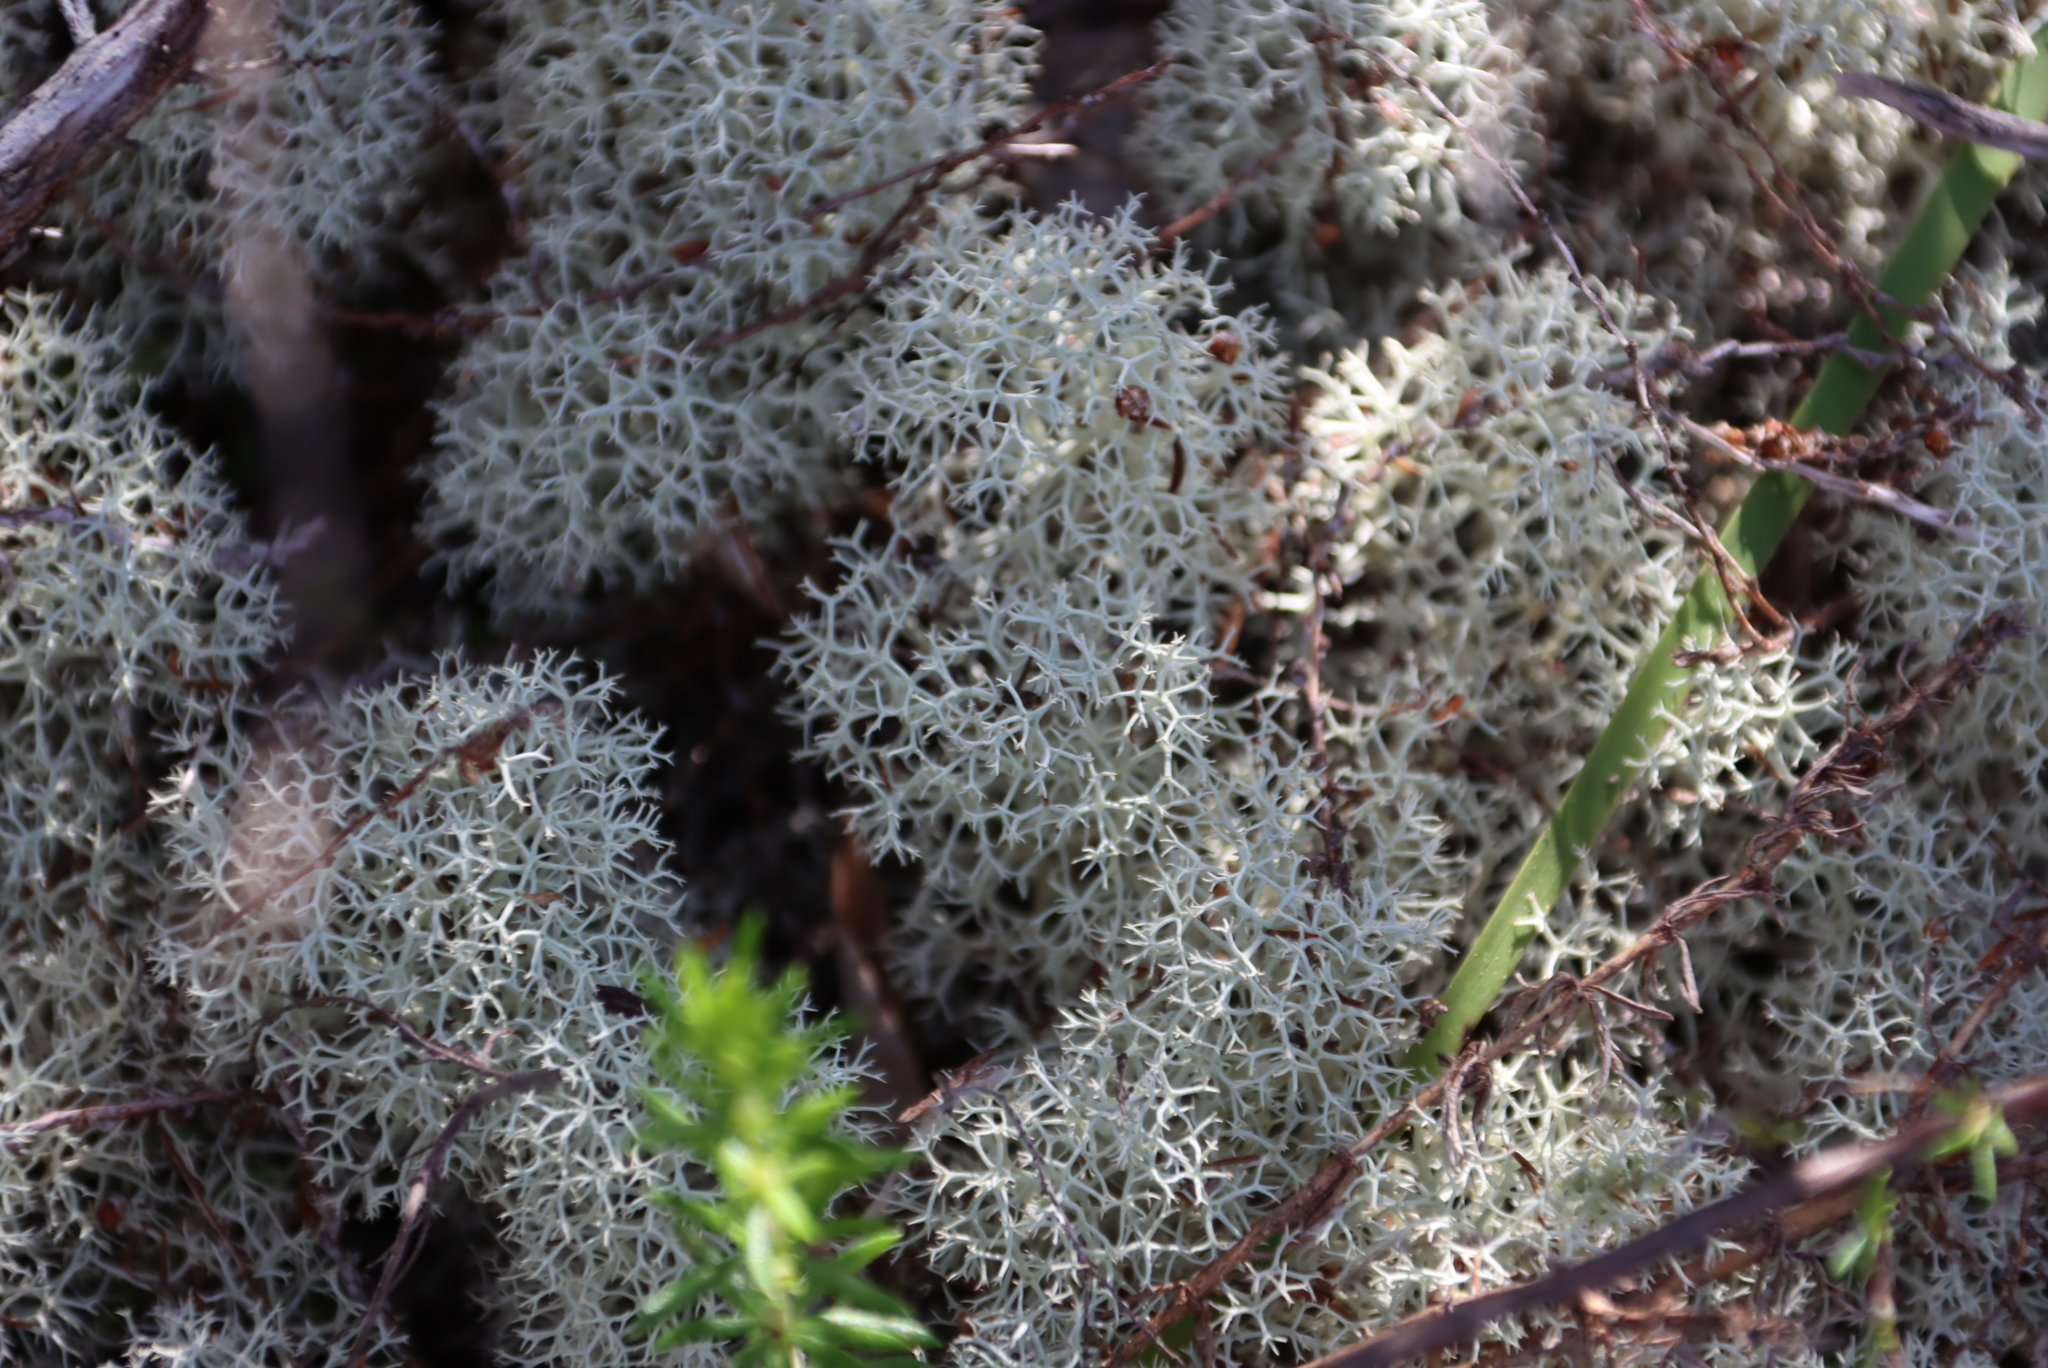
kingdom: Fungi
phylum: Ascomycota
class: Lecanoromycetes
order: Lecanorales
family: Cladoniaceae
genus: Cladonia
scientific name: Cladonia confusa
